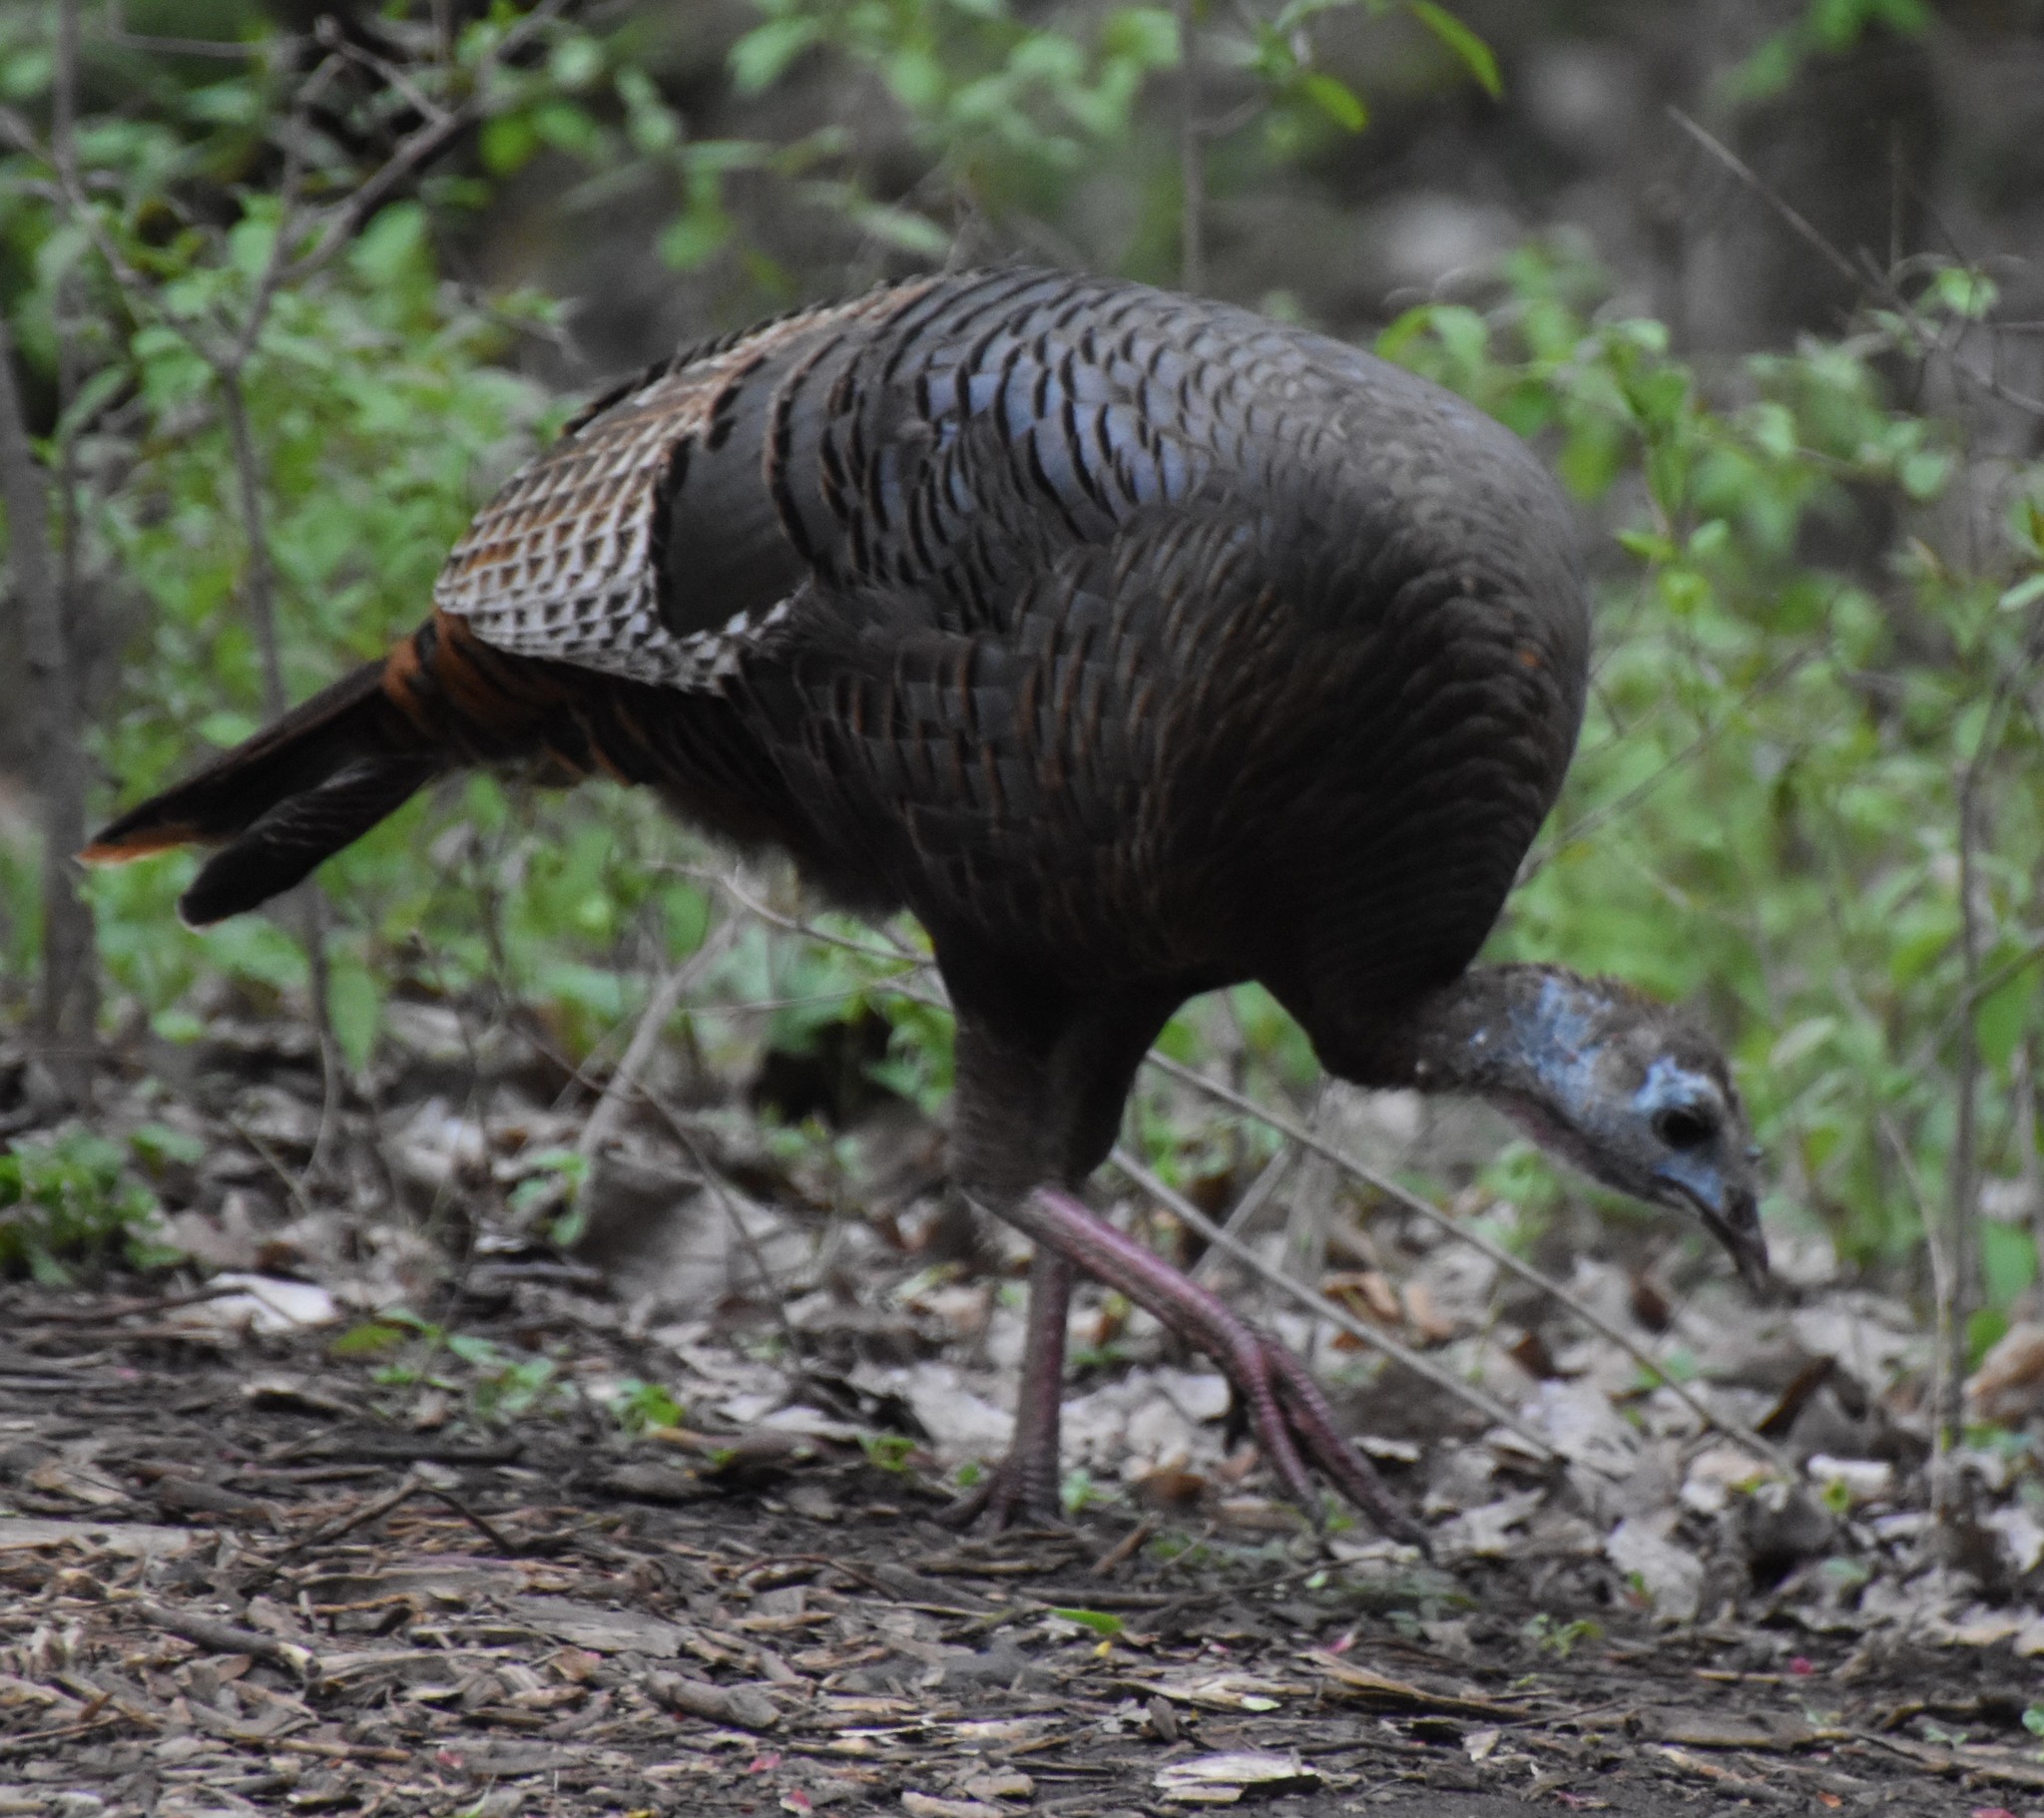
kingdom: Animalia
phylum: Chordata
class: Aves
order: Galliformes
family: Phasianidae
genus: Meleagris
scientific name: Meleagris gallopavo
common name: Wild turkey
